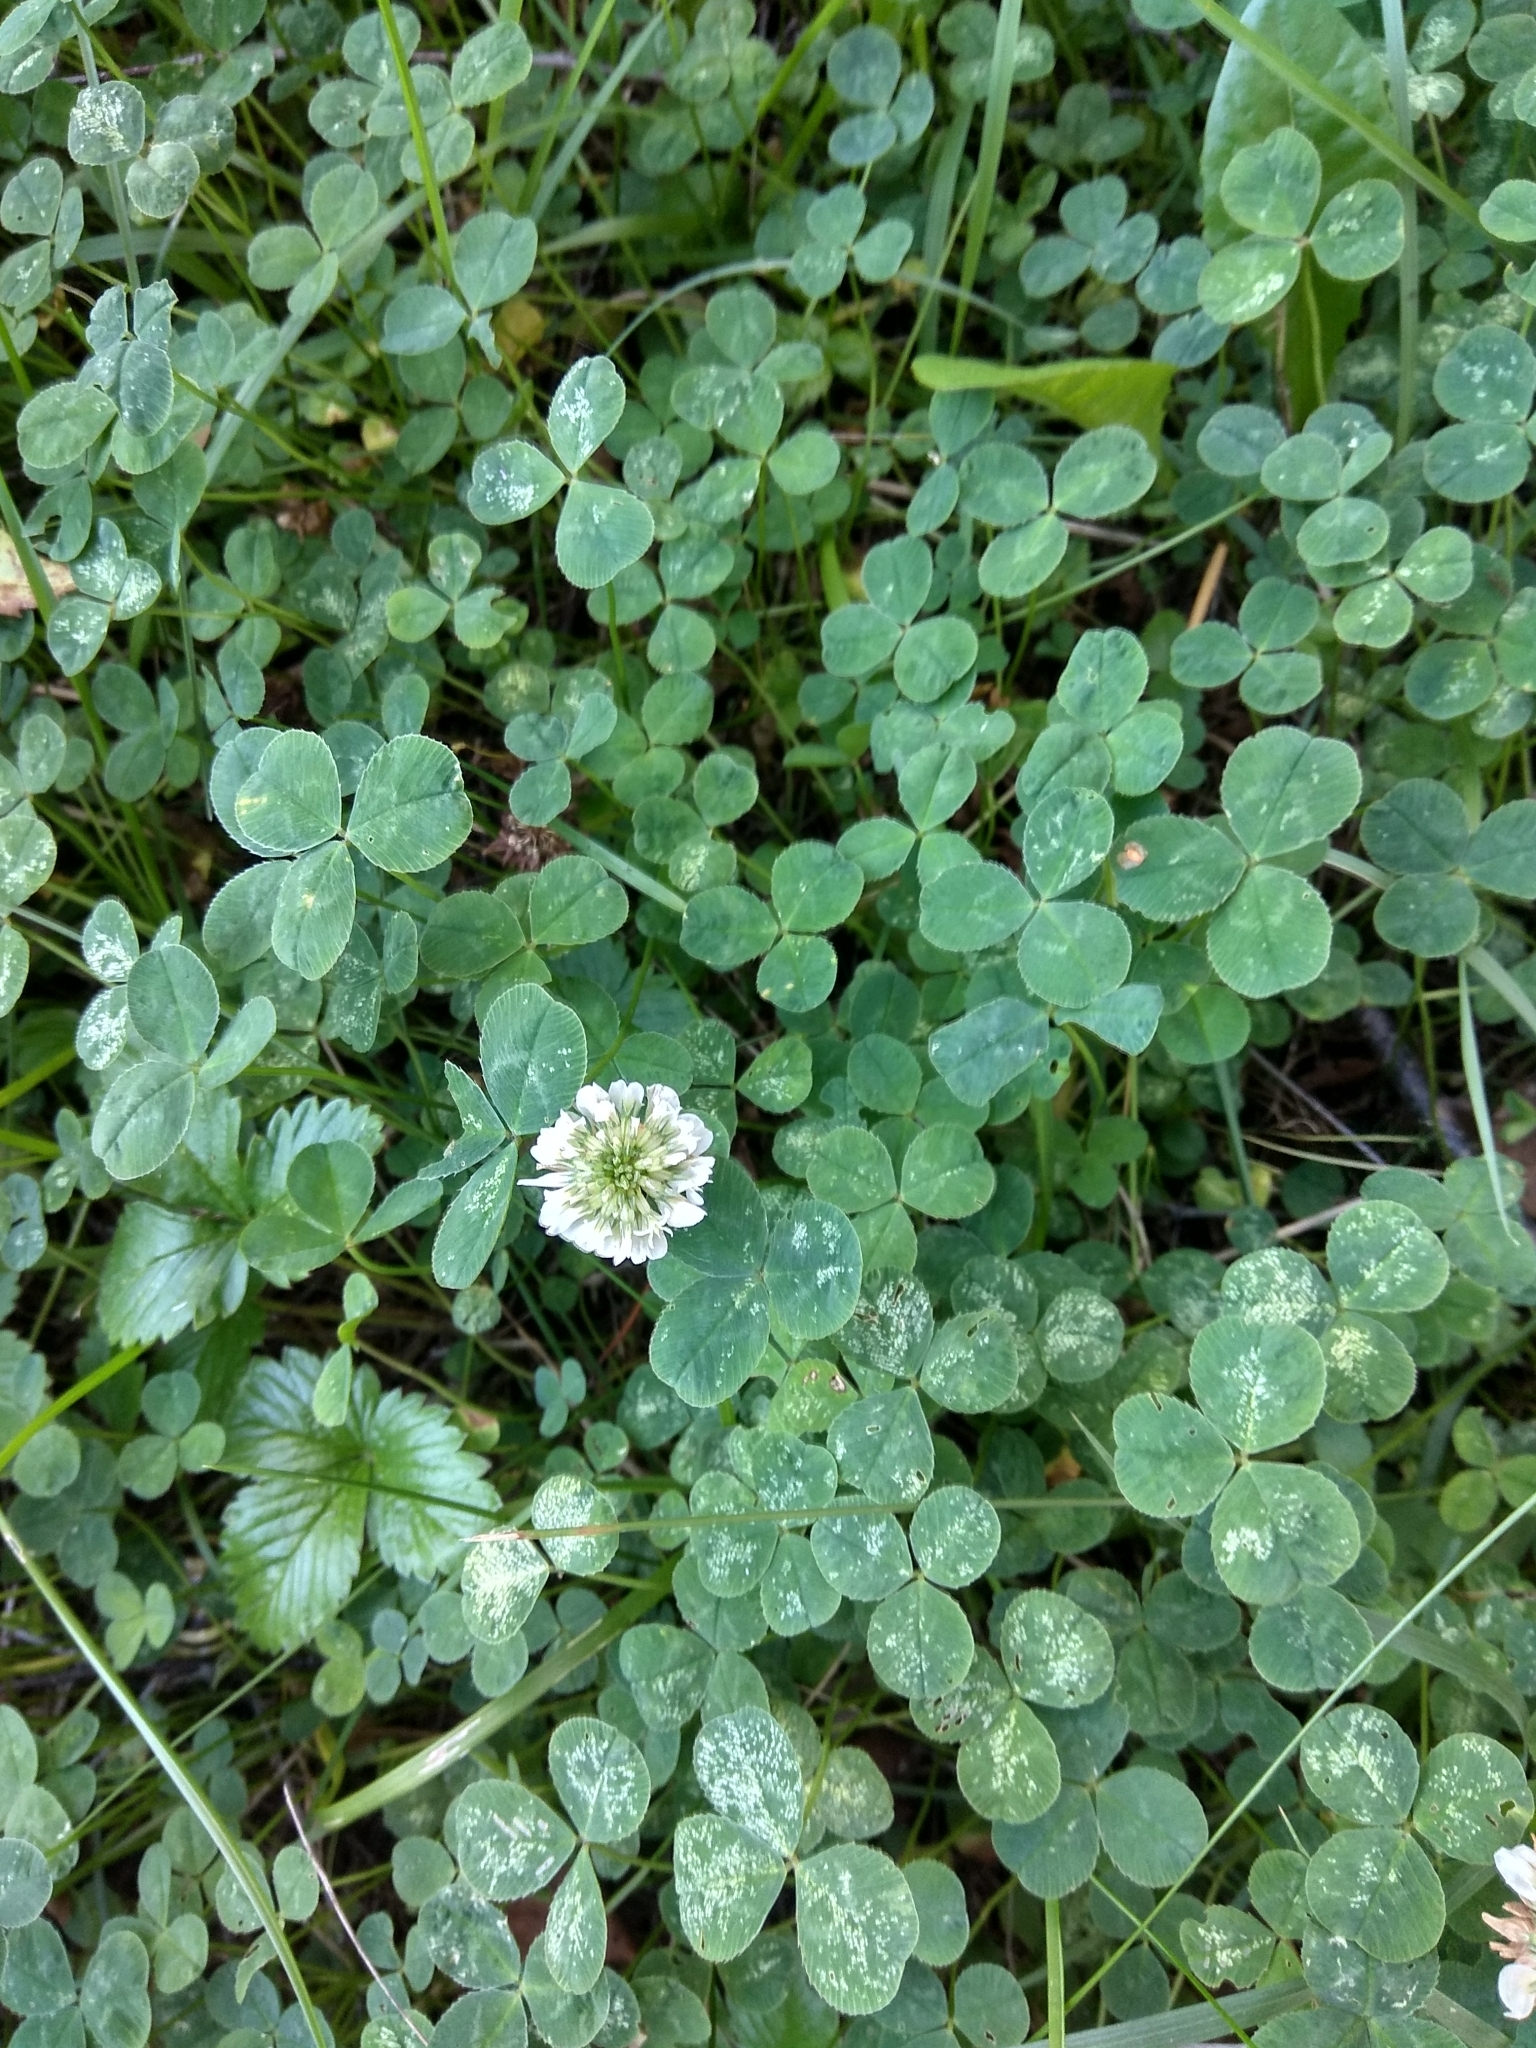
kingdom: Plantae
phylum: Tracheophyta
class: Magnoliopsida
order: Fabales
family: Fabaceae
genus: Trifolium
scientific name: Trifolium repens
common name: White clover
